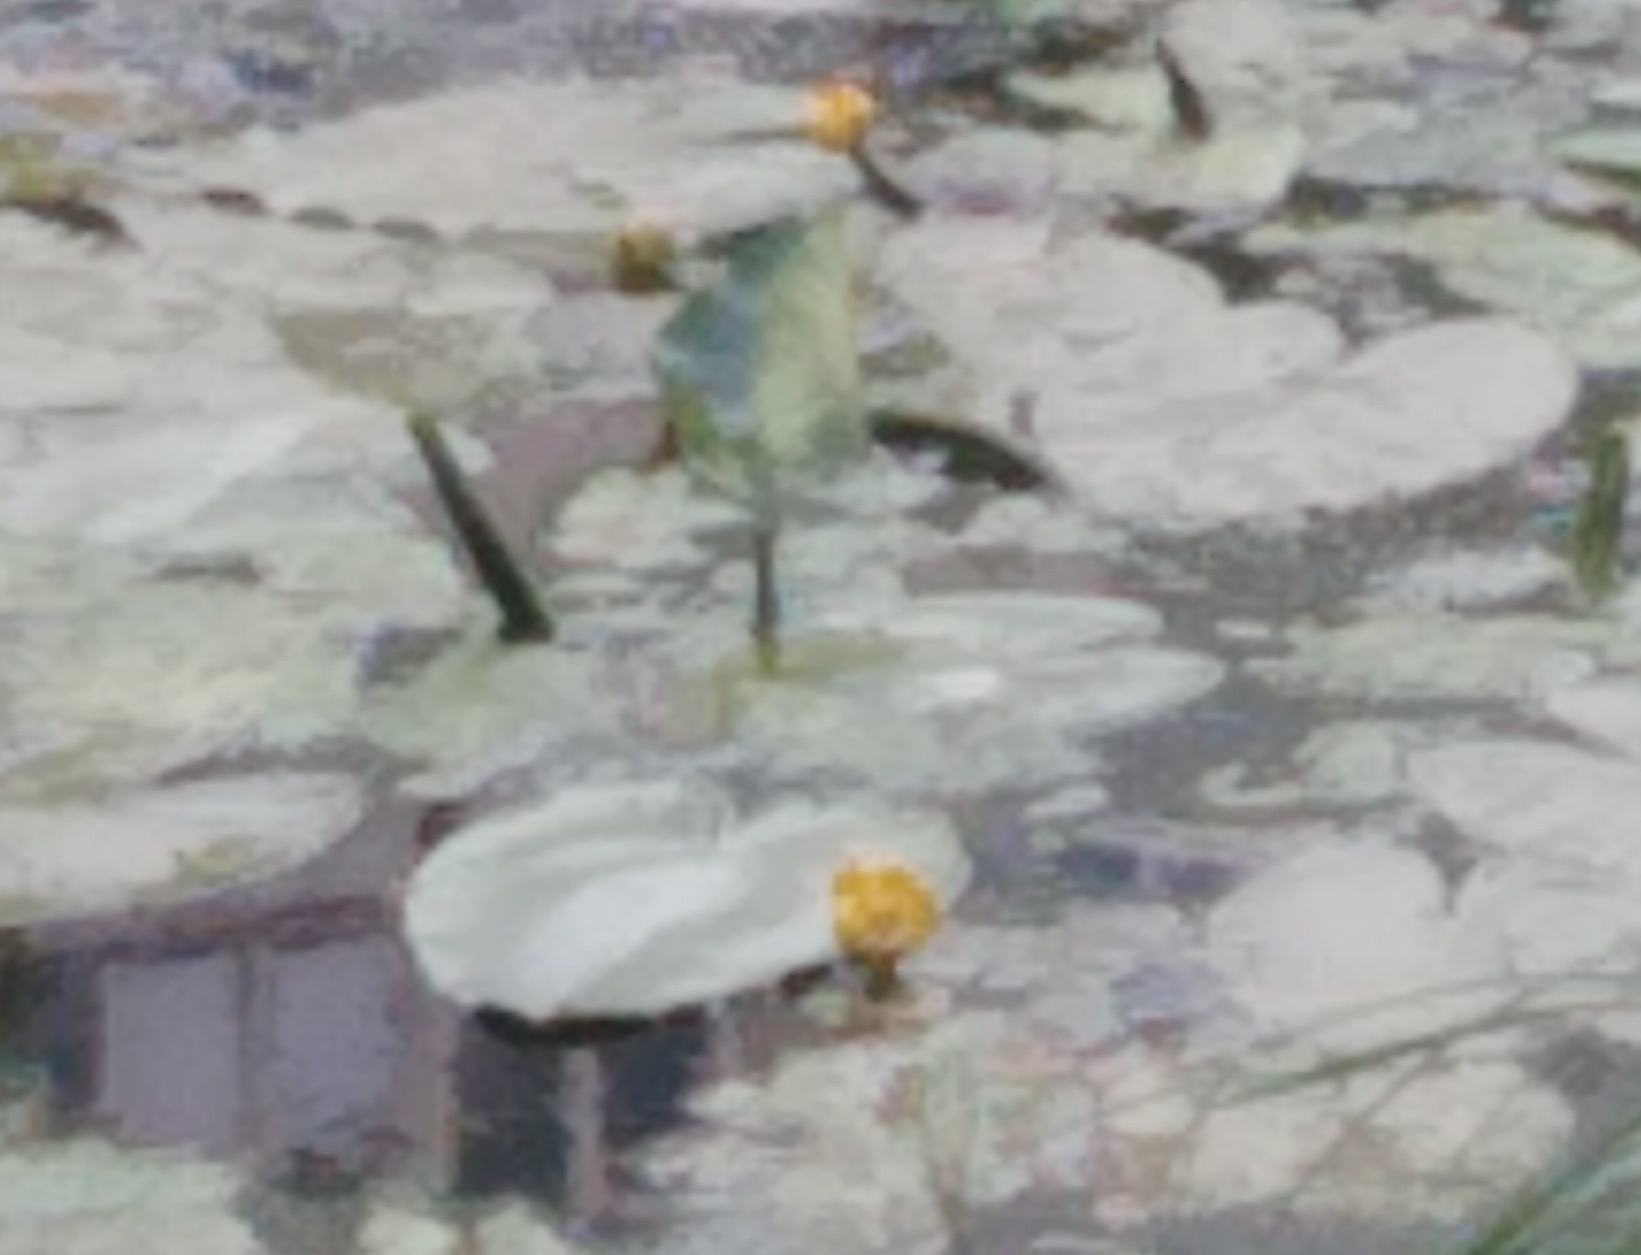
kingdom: Plantae
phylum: Tracheophyta
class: Magnoliopsida
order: Nymphaeales
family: Nymphaeaceae
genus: Nuphar
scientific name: Nuphar lutea
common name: Yellow water-lily
